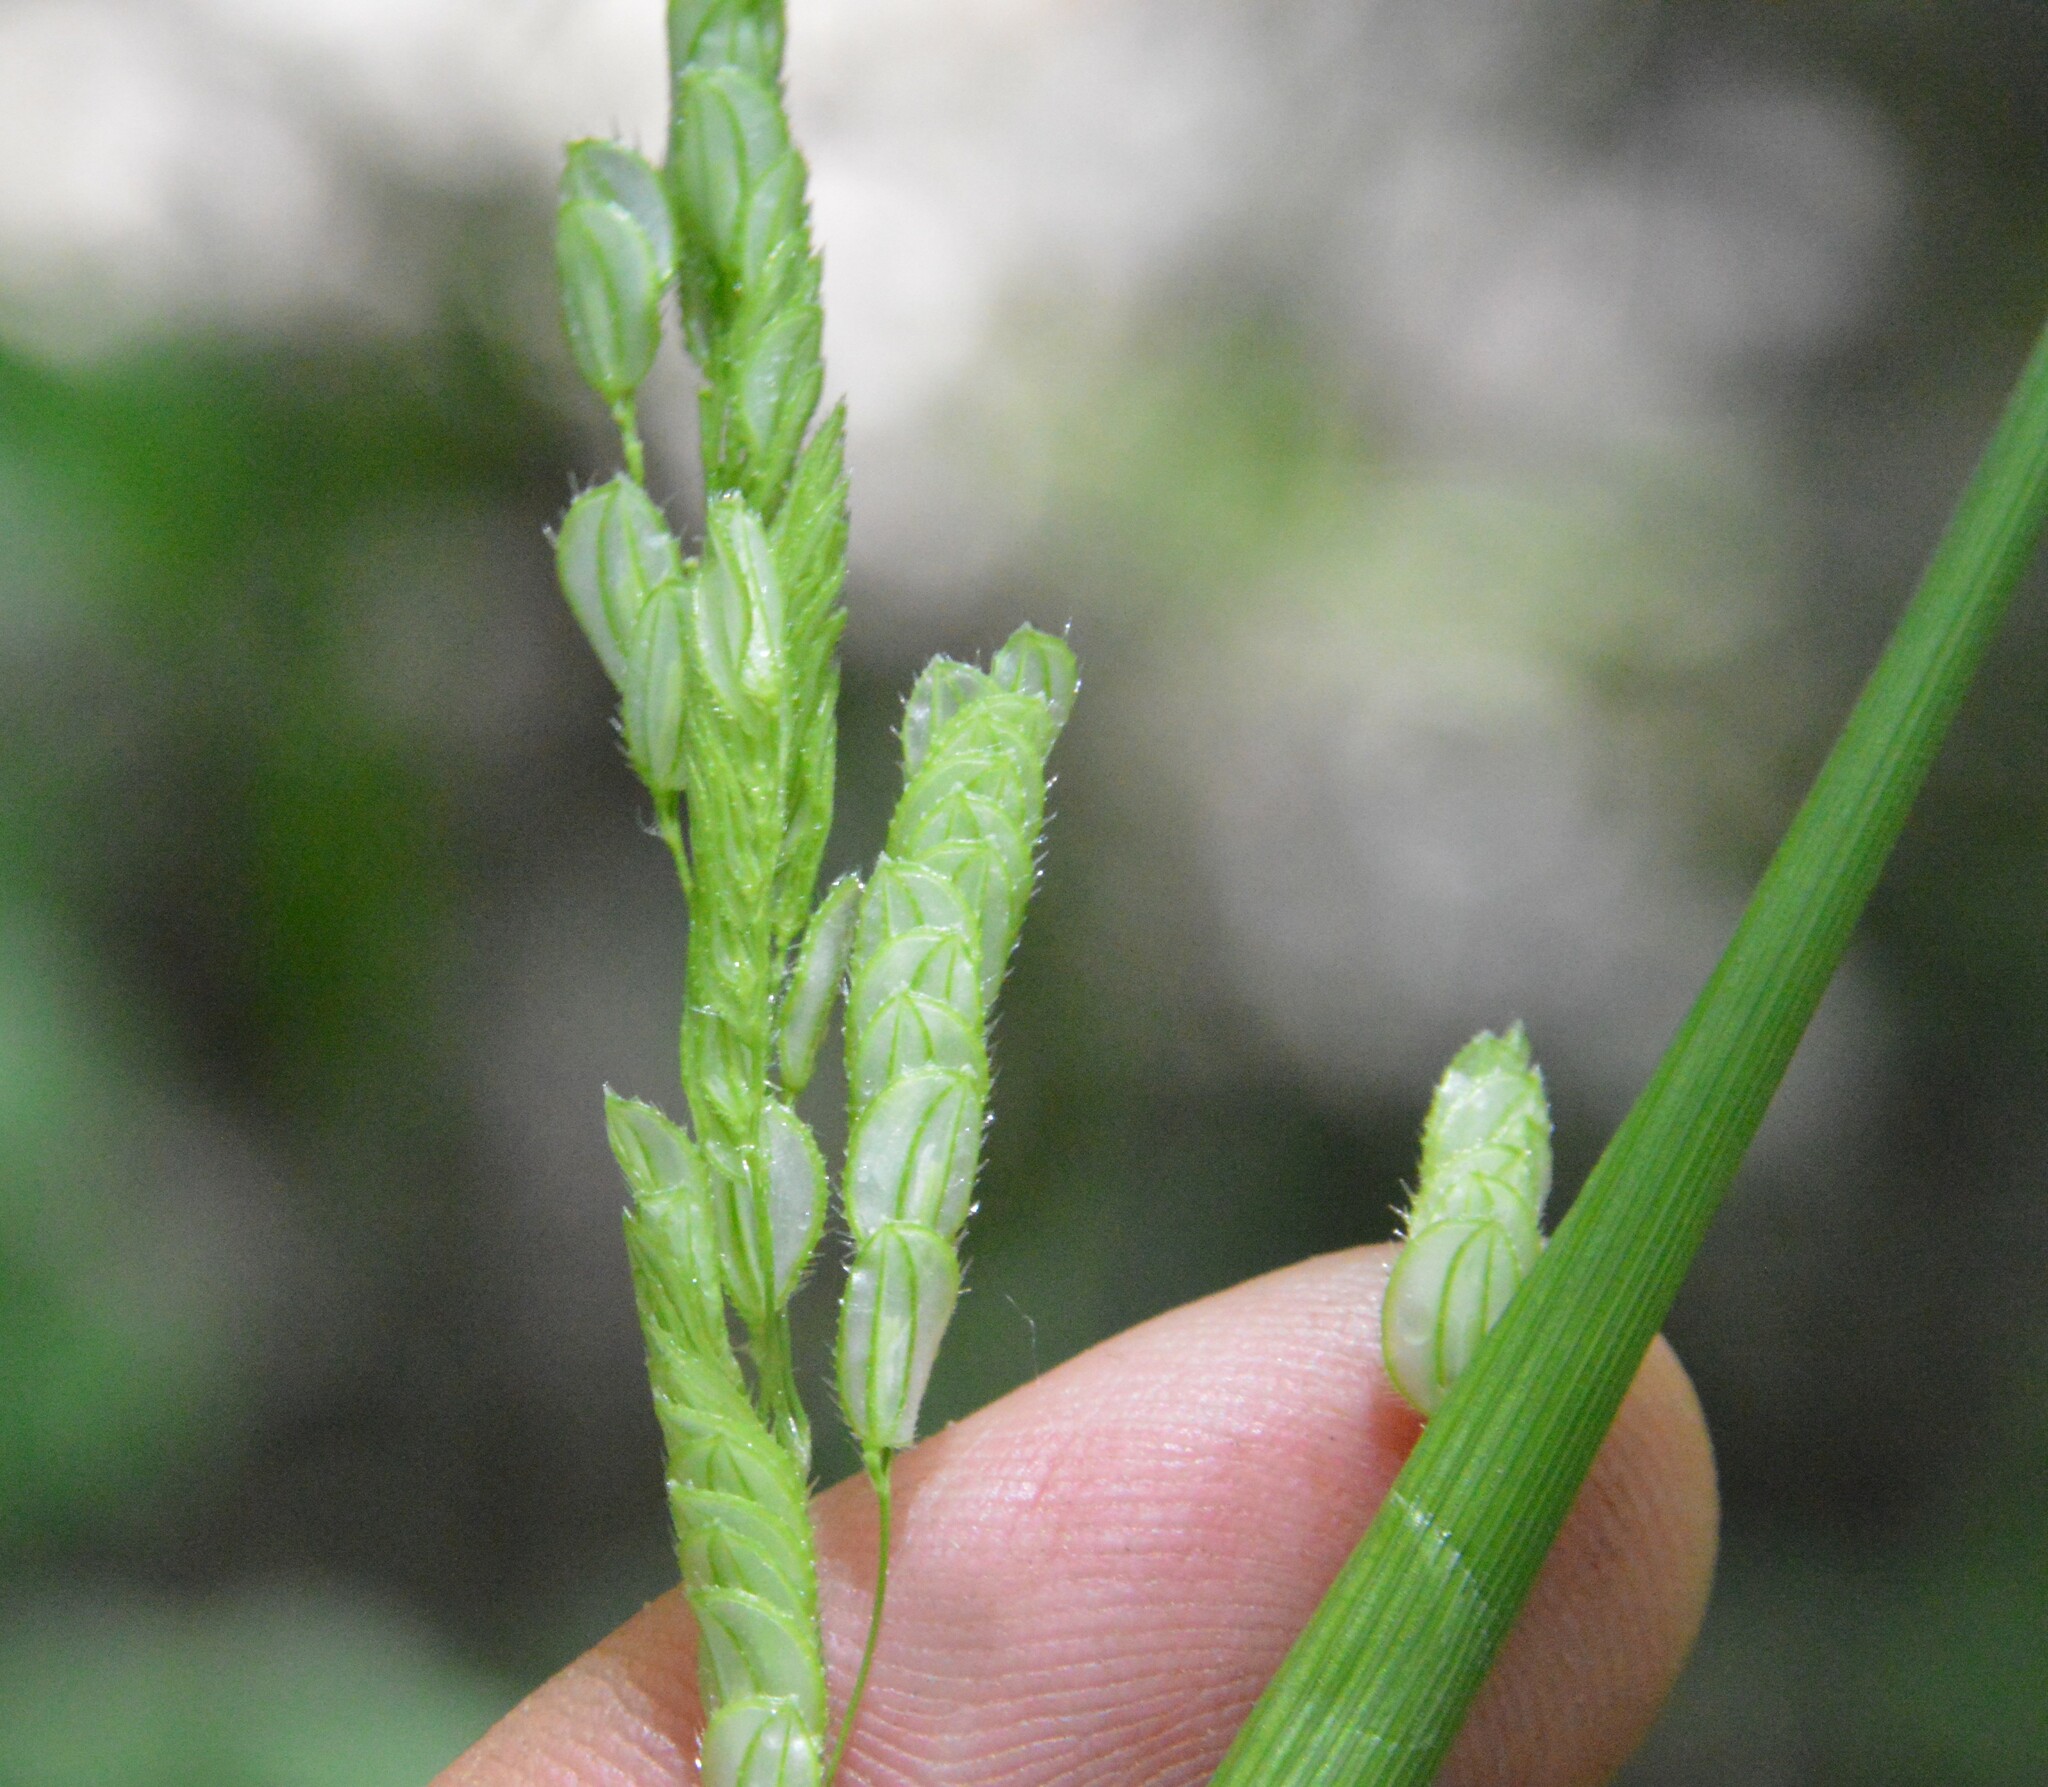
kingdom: Plantae
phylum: Tracheophyta
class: Liliopsida
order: Poales
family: Poaceae
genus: Leersia
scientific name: Leersia lenticularis
